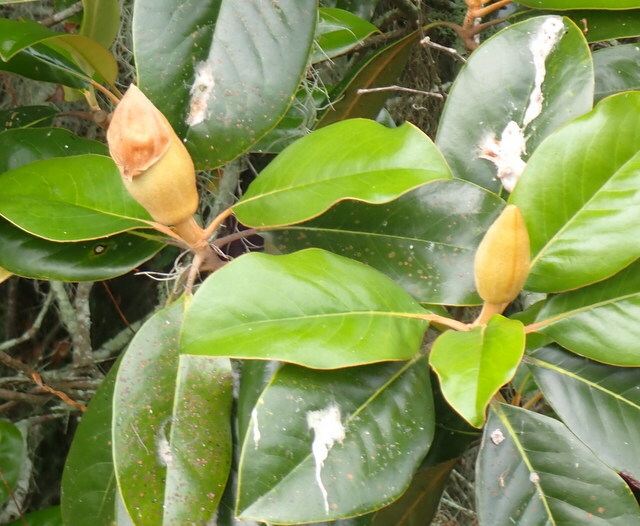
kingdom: Plantae
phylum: Tracheophyta
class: Magnoliopsida
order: Magnoliales
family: Magnoliaceae
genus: Magnolia
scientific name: Magnolia grandiflora
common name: Southern magnolia
